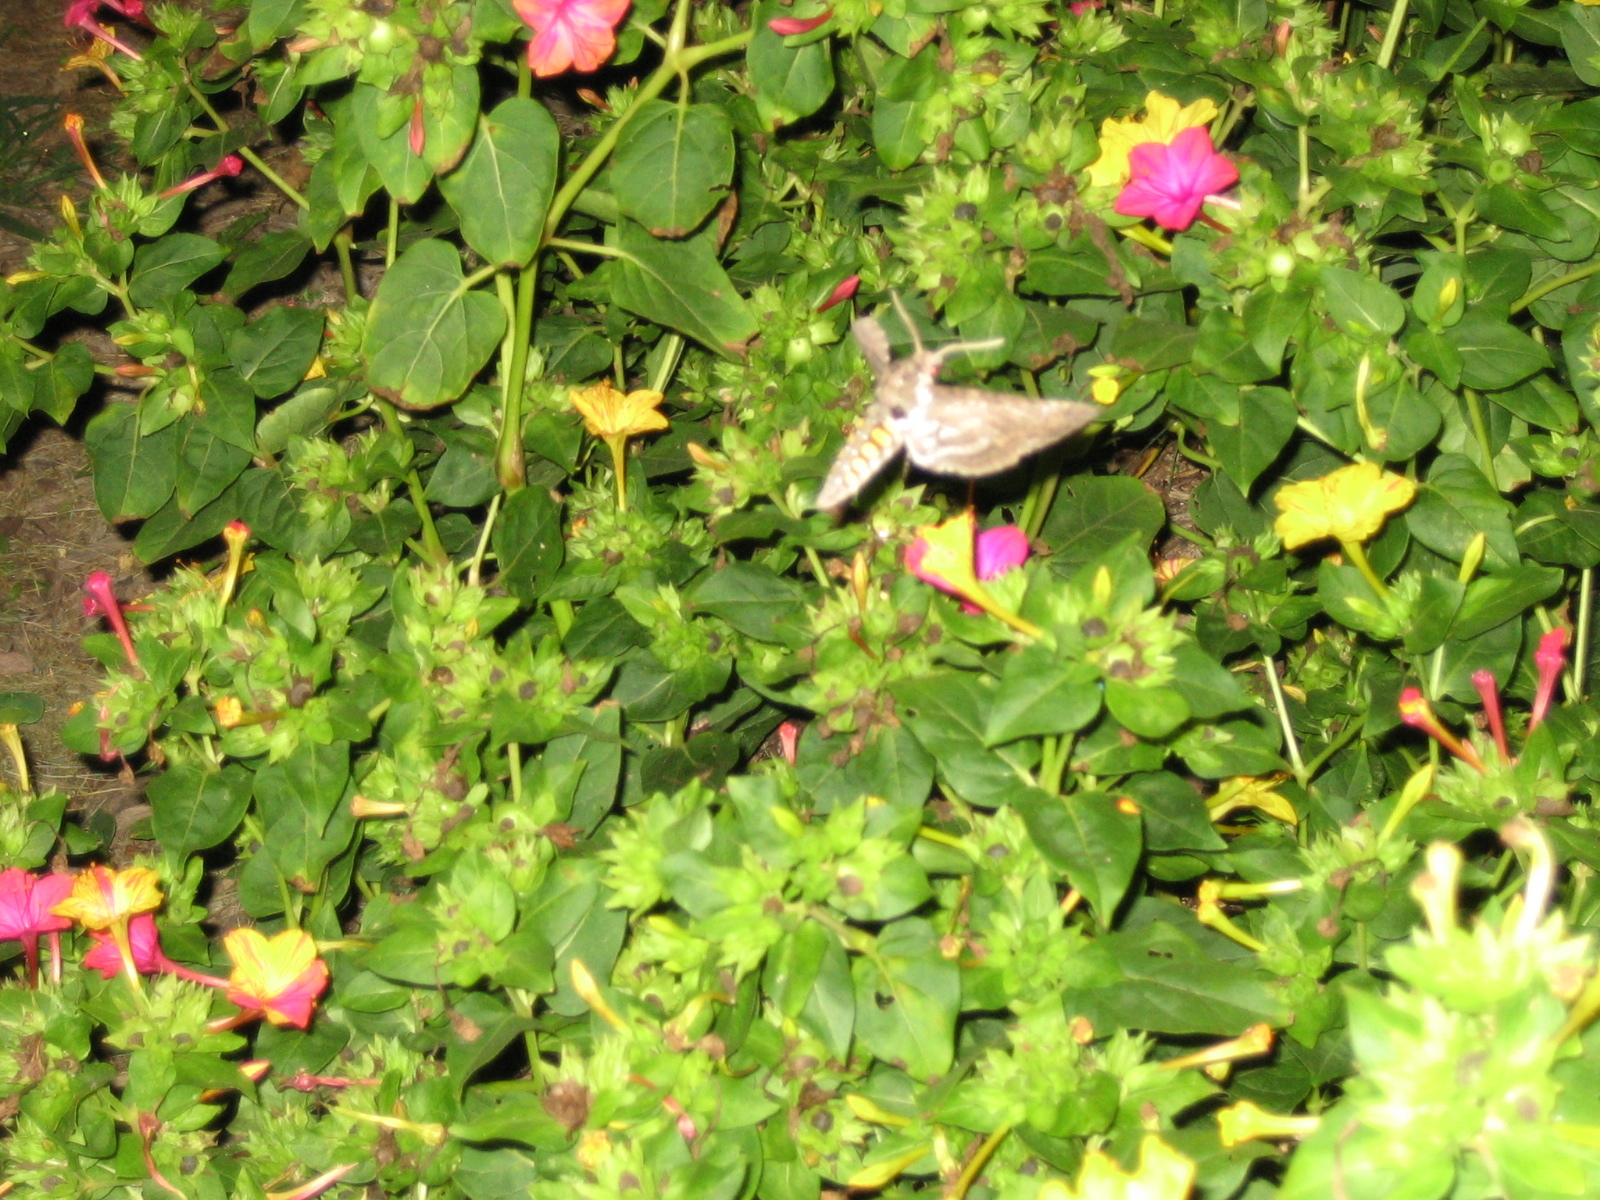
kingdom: Animalia
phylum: Arthropoda
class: Insecta
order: Lepidoptera
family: Sphingidae
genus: Manduca
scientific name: Manduca sexta
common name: Carolina sphinx
